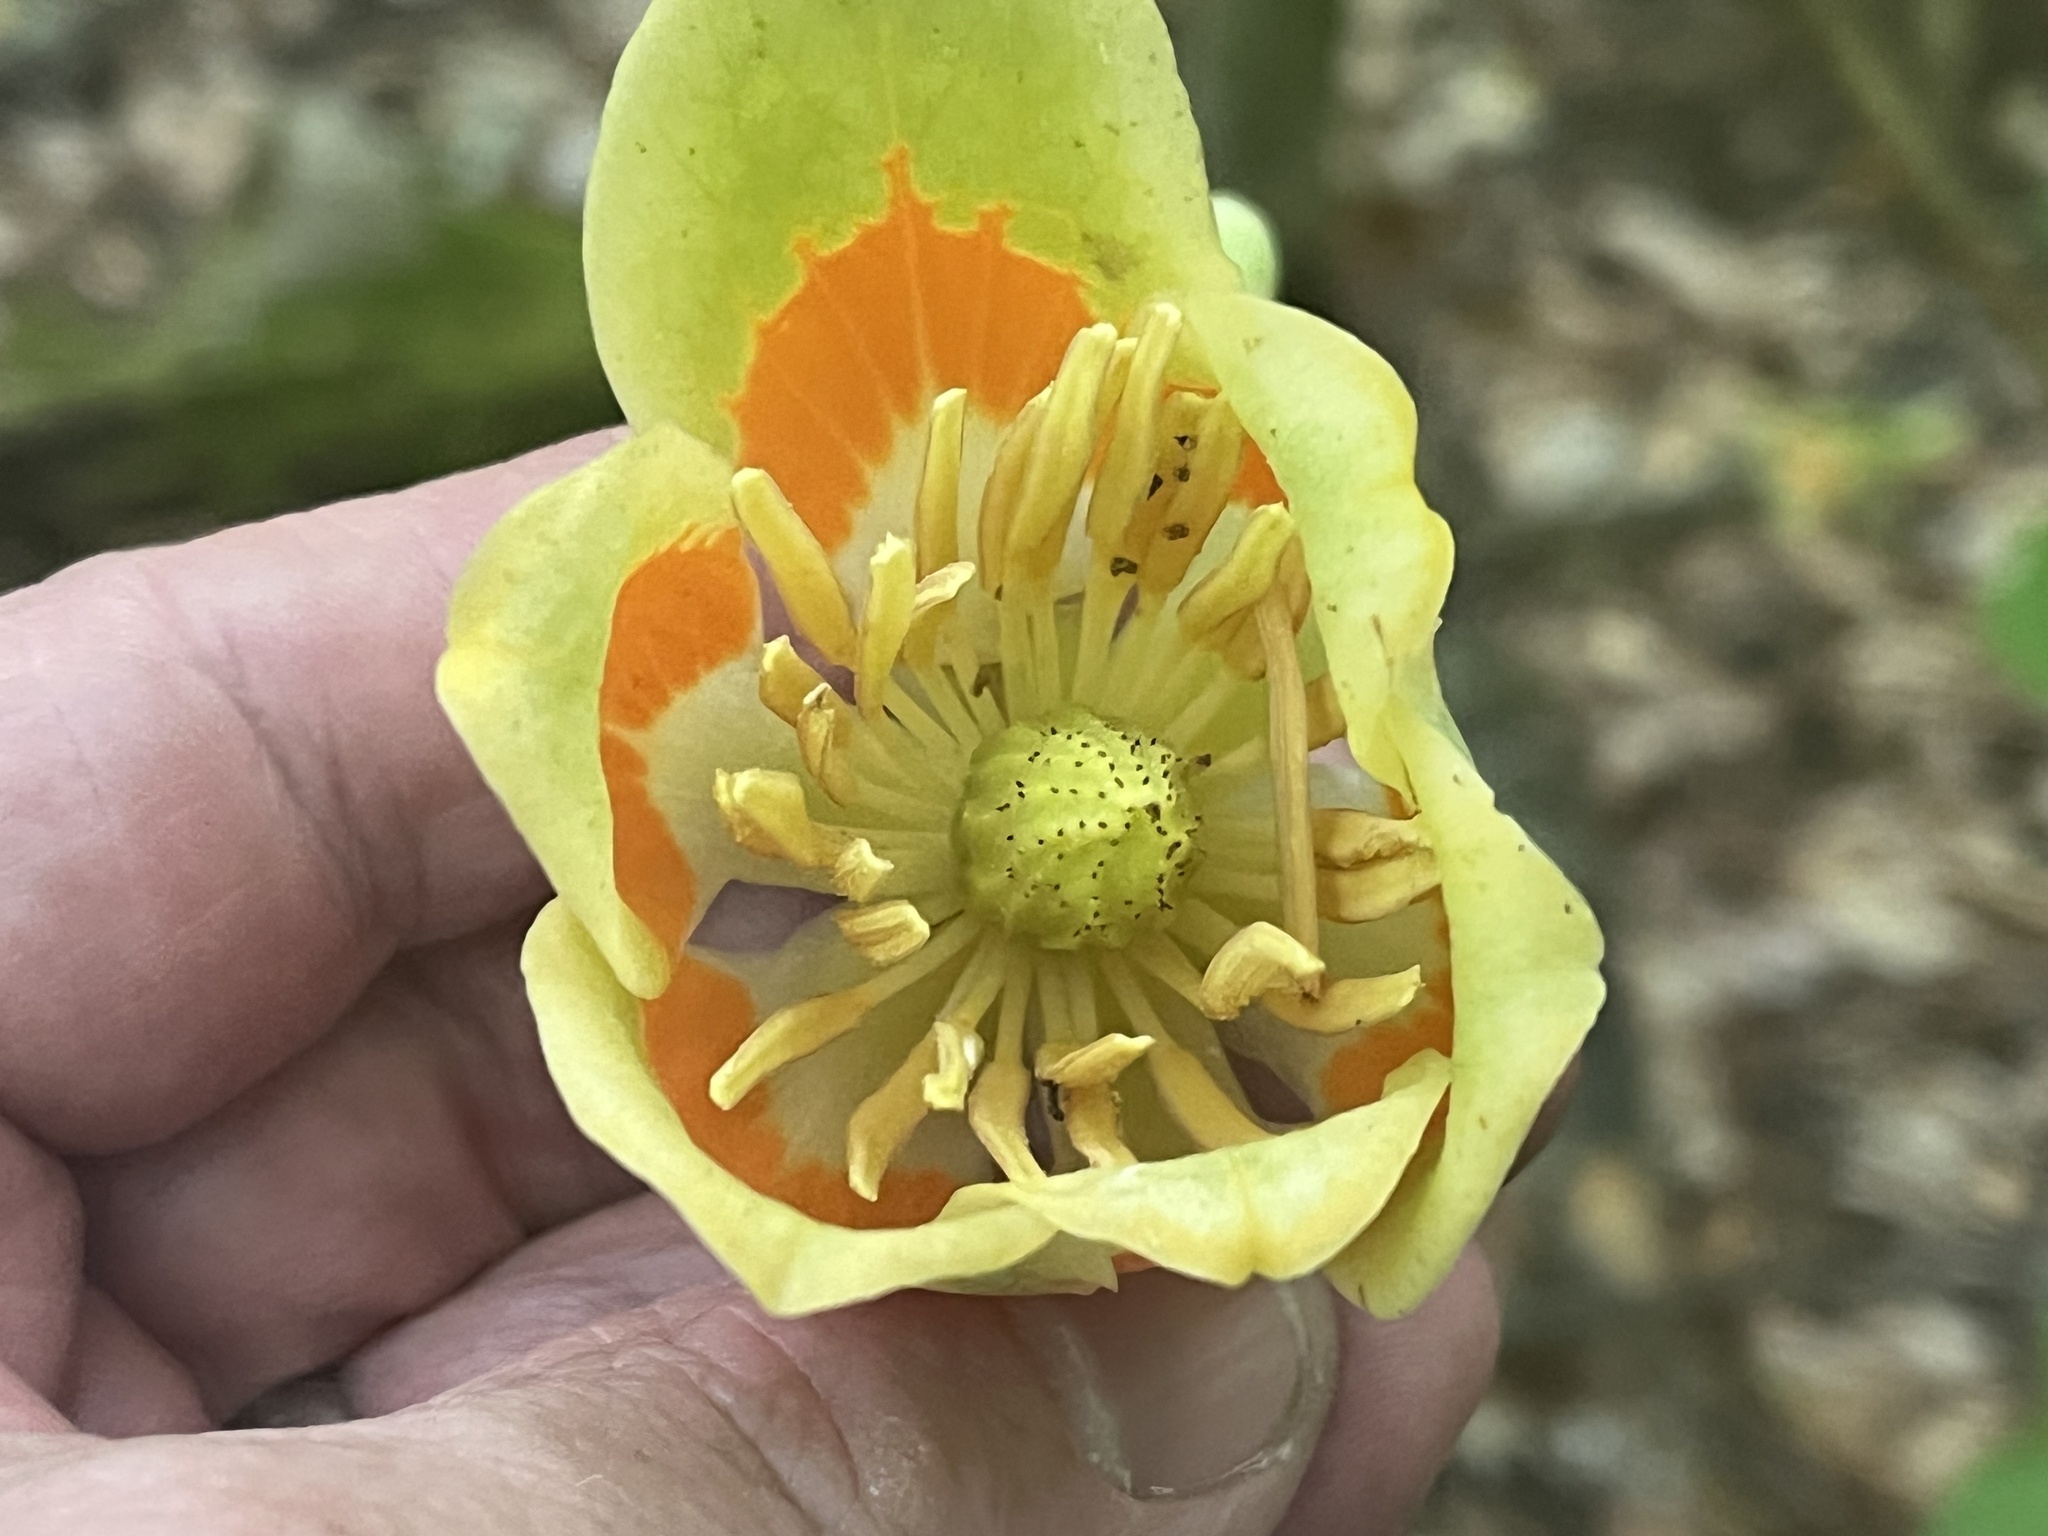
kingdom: Plantae
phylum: Tracheophyta
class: Magnoliopsida
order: Magnoliales
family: Magnoliaceae
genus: Liriodendron
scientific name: Liriodendron tulipifera
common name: Tulip tree
